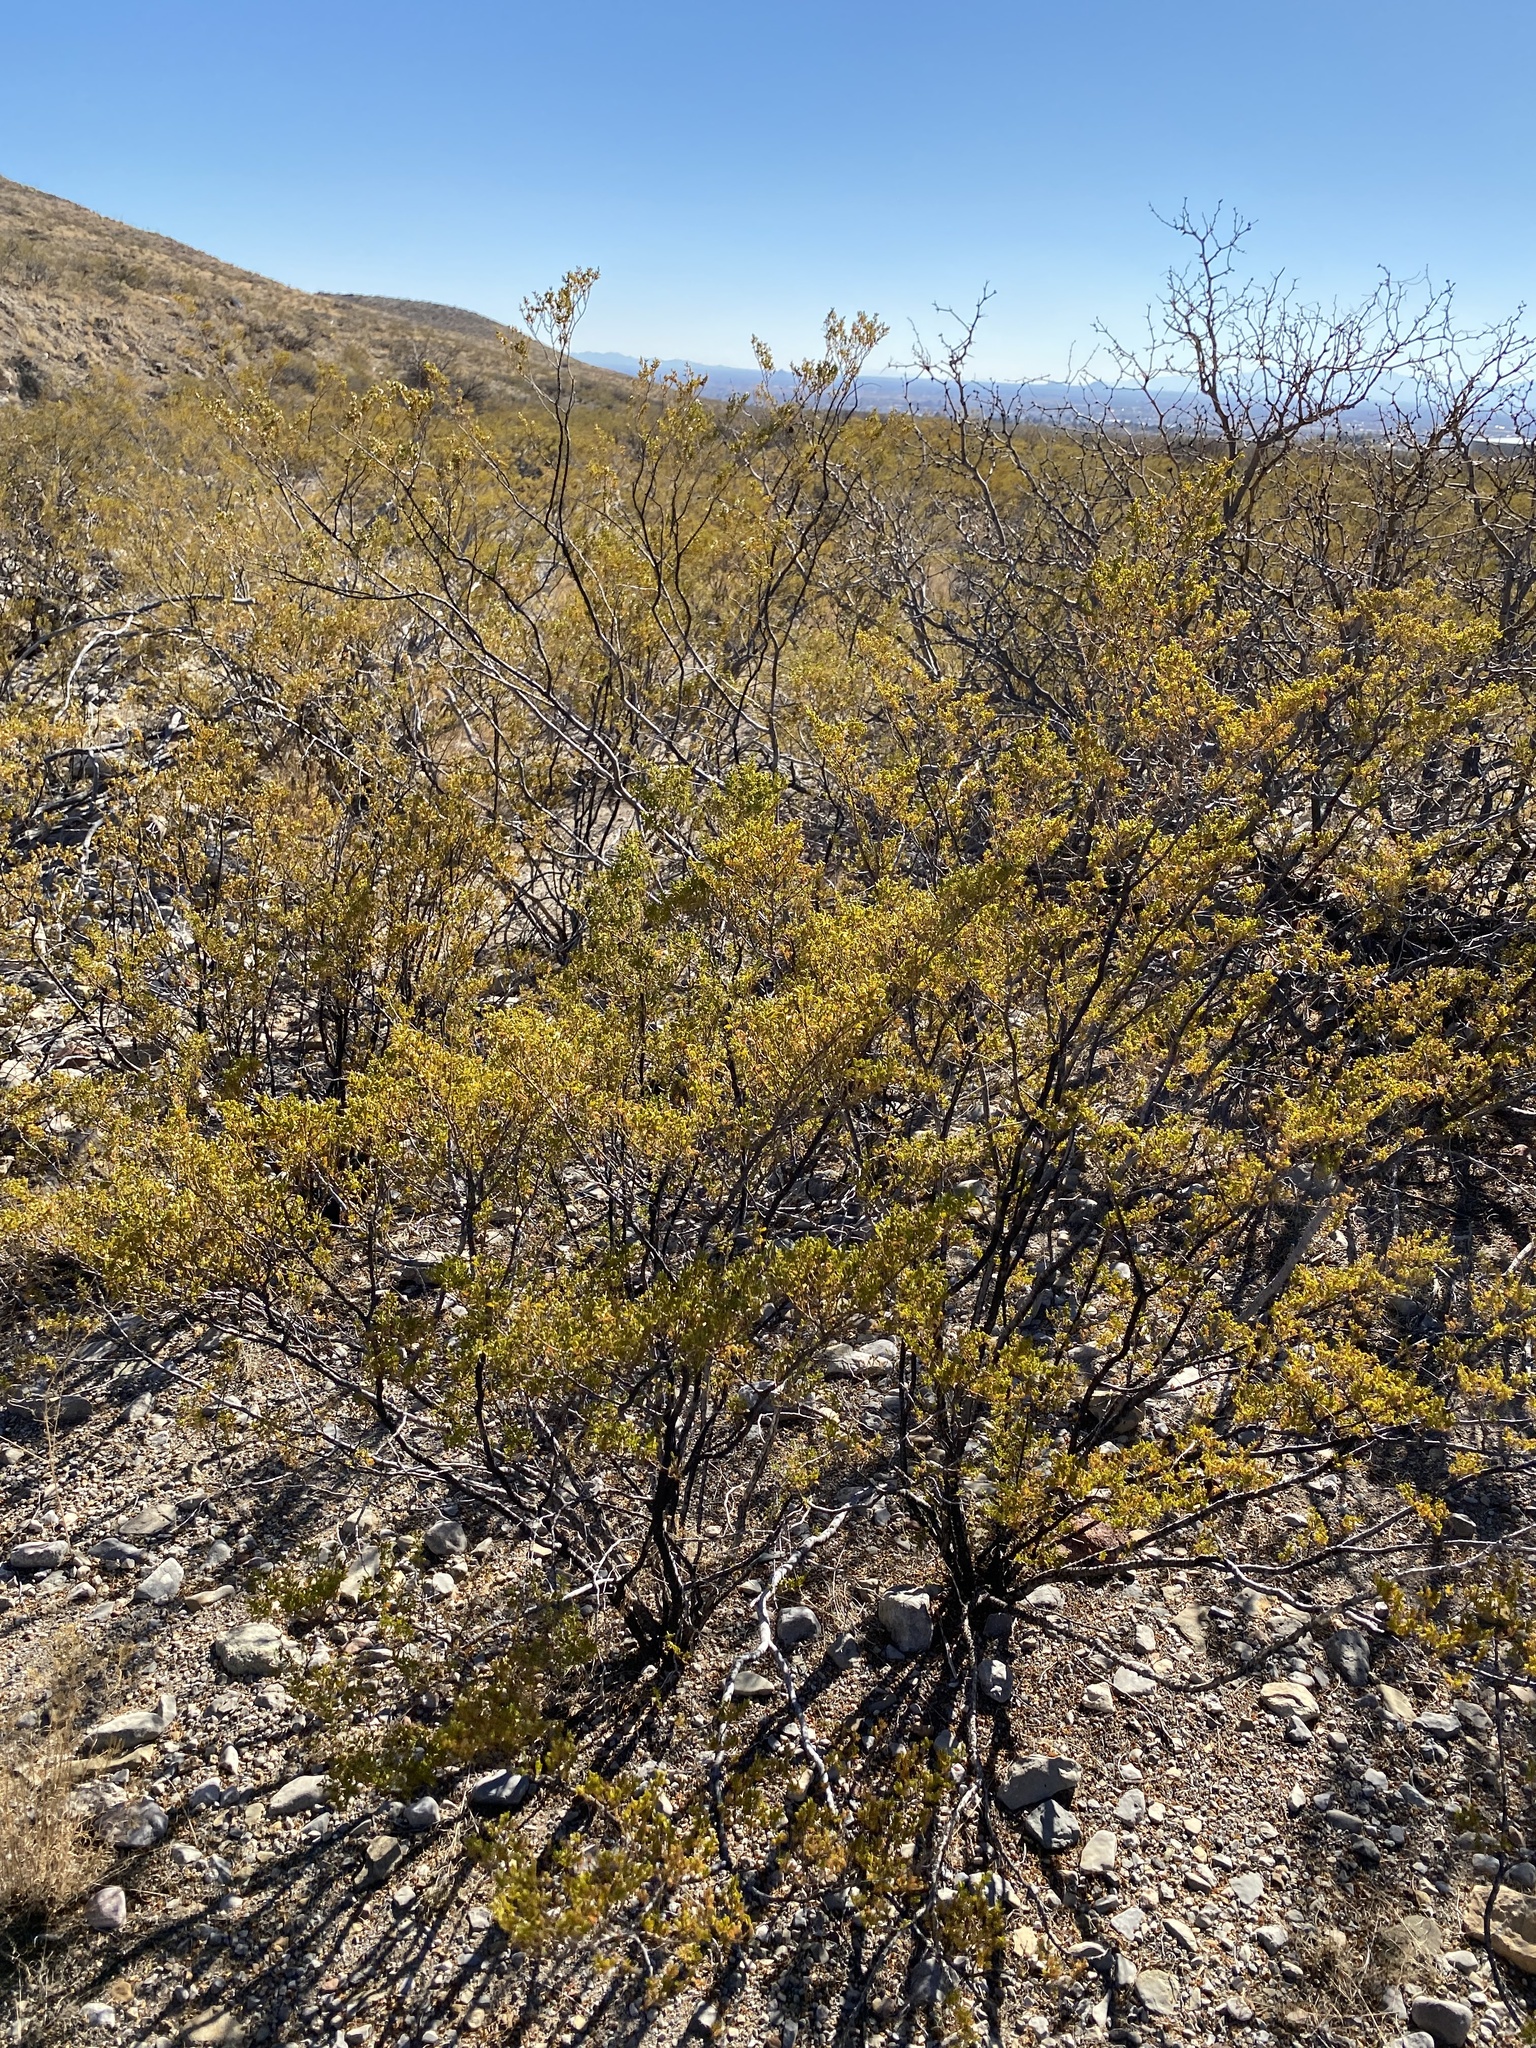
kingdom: Plantae
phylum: Tracheophyta
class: Magnoliopsida
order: Zygophyllales
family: Zygophyllaceae
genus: Larrea
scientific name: Larrea tridentata
